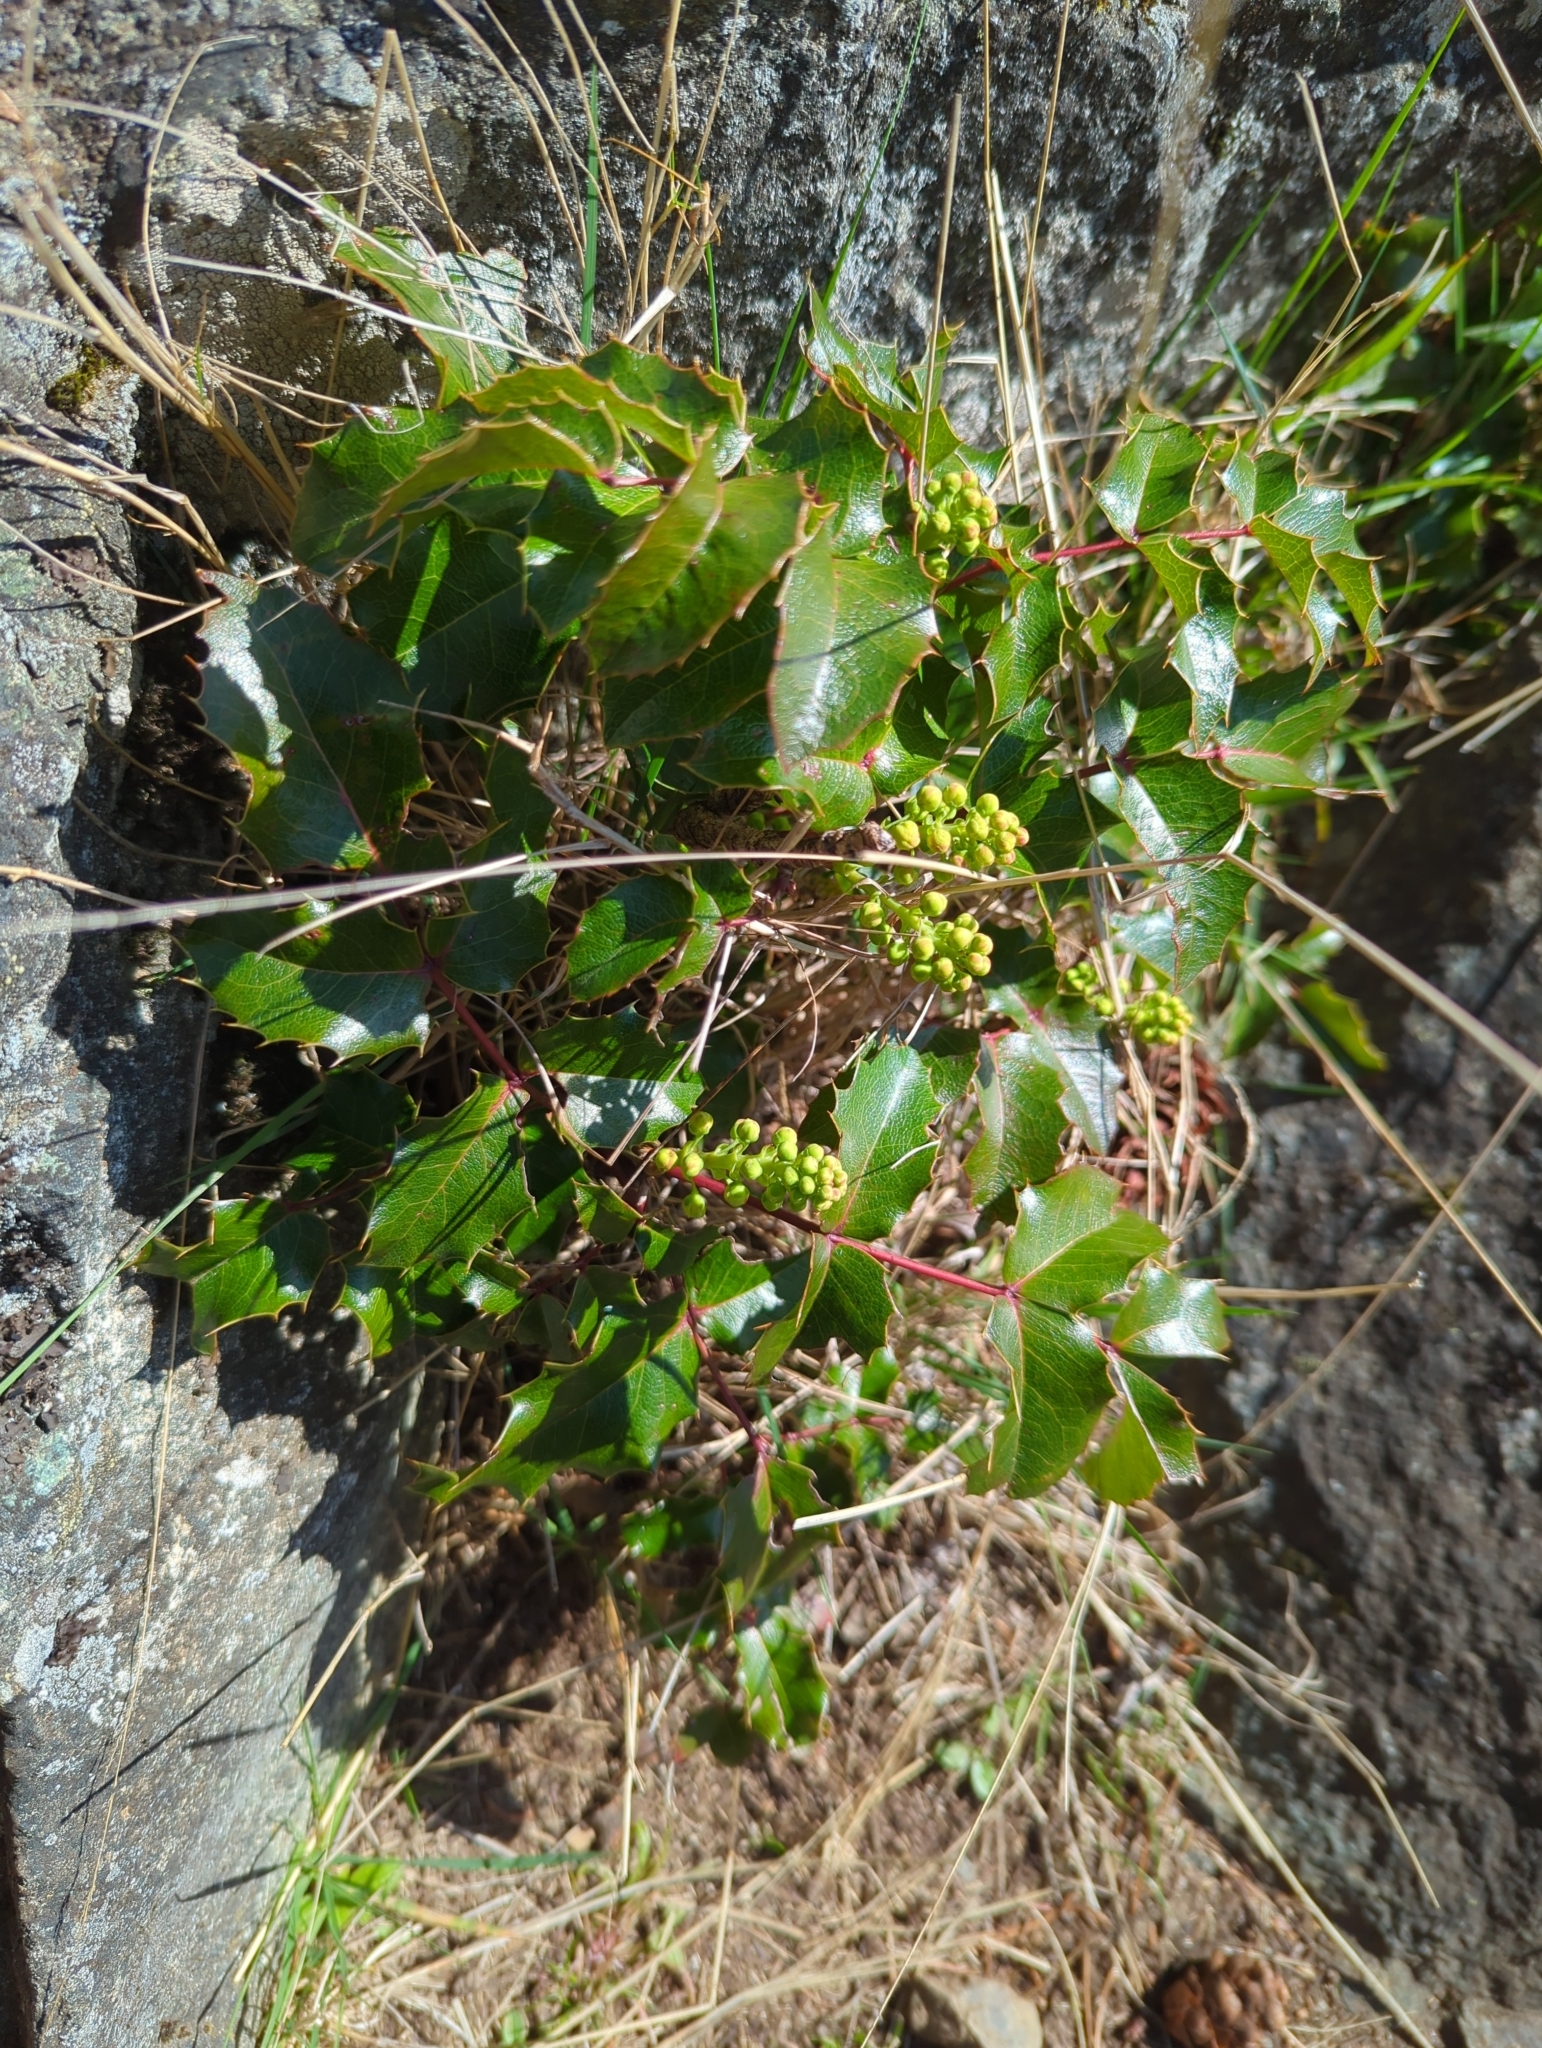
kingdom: Plantae
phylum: Tracheophyta
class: Magnoliopsida
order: Ranunculales
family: Berberidaceae
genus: Mahonia
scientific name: Mahonia aquifolium
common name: Oregon-grape
